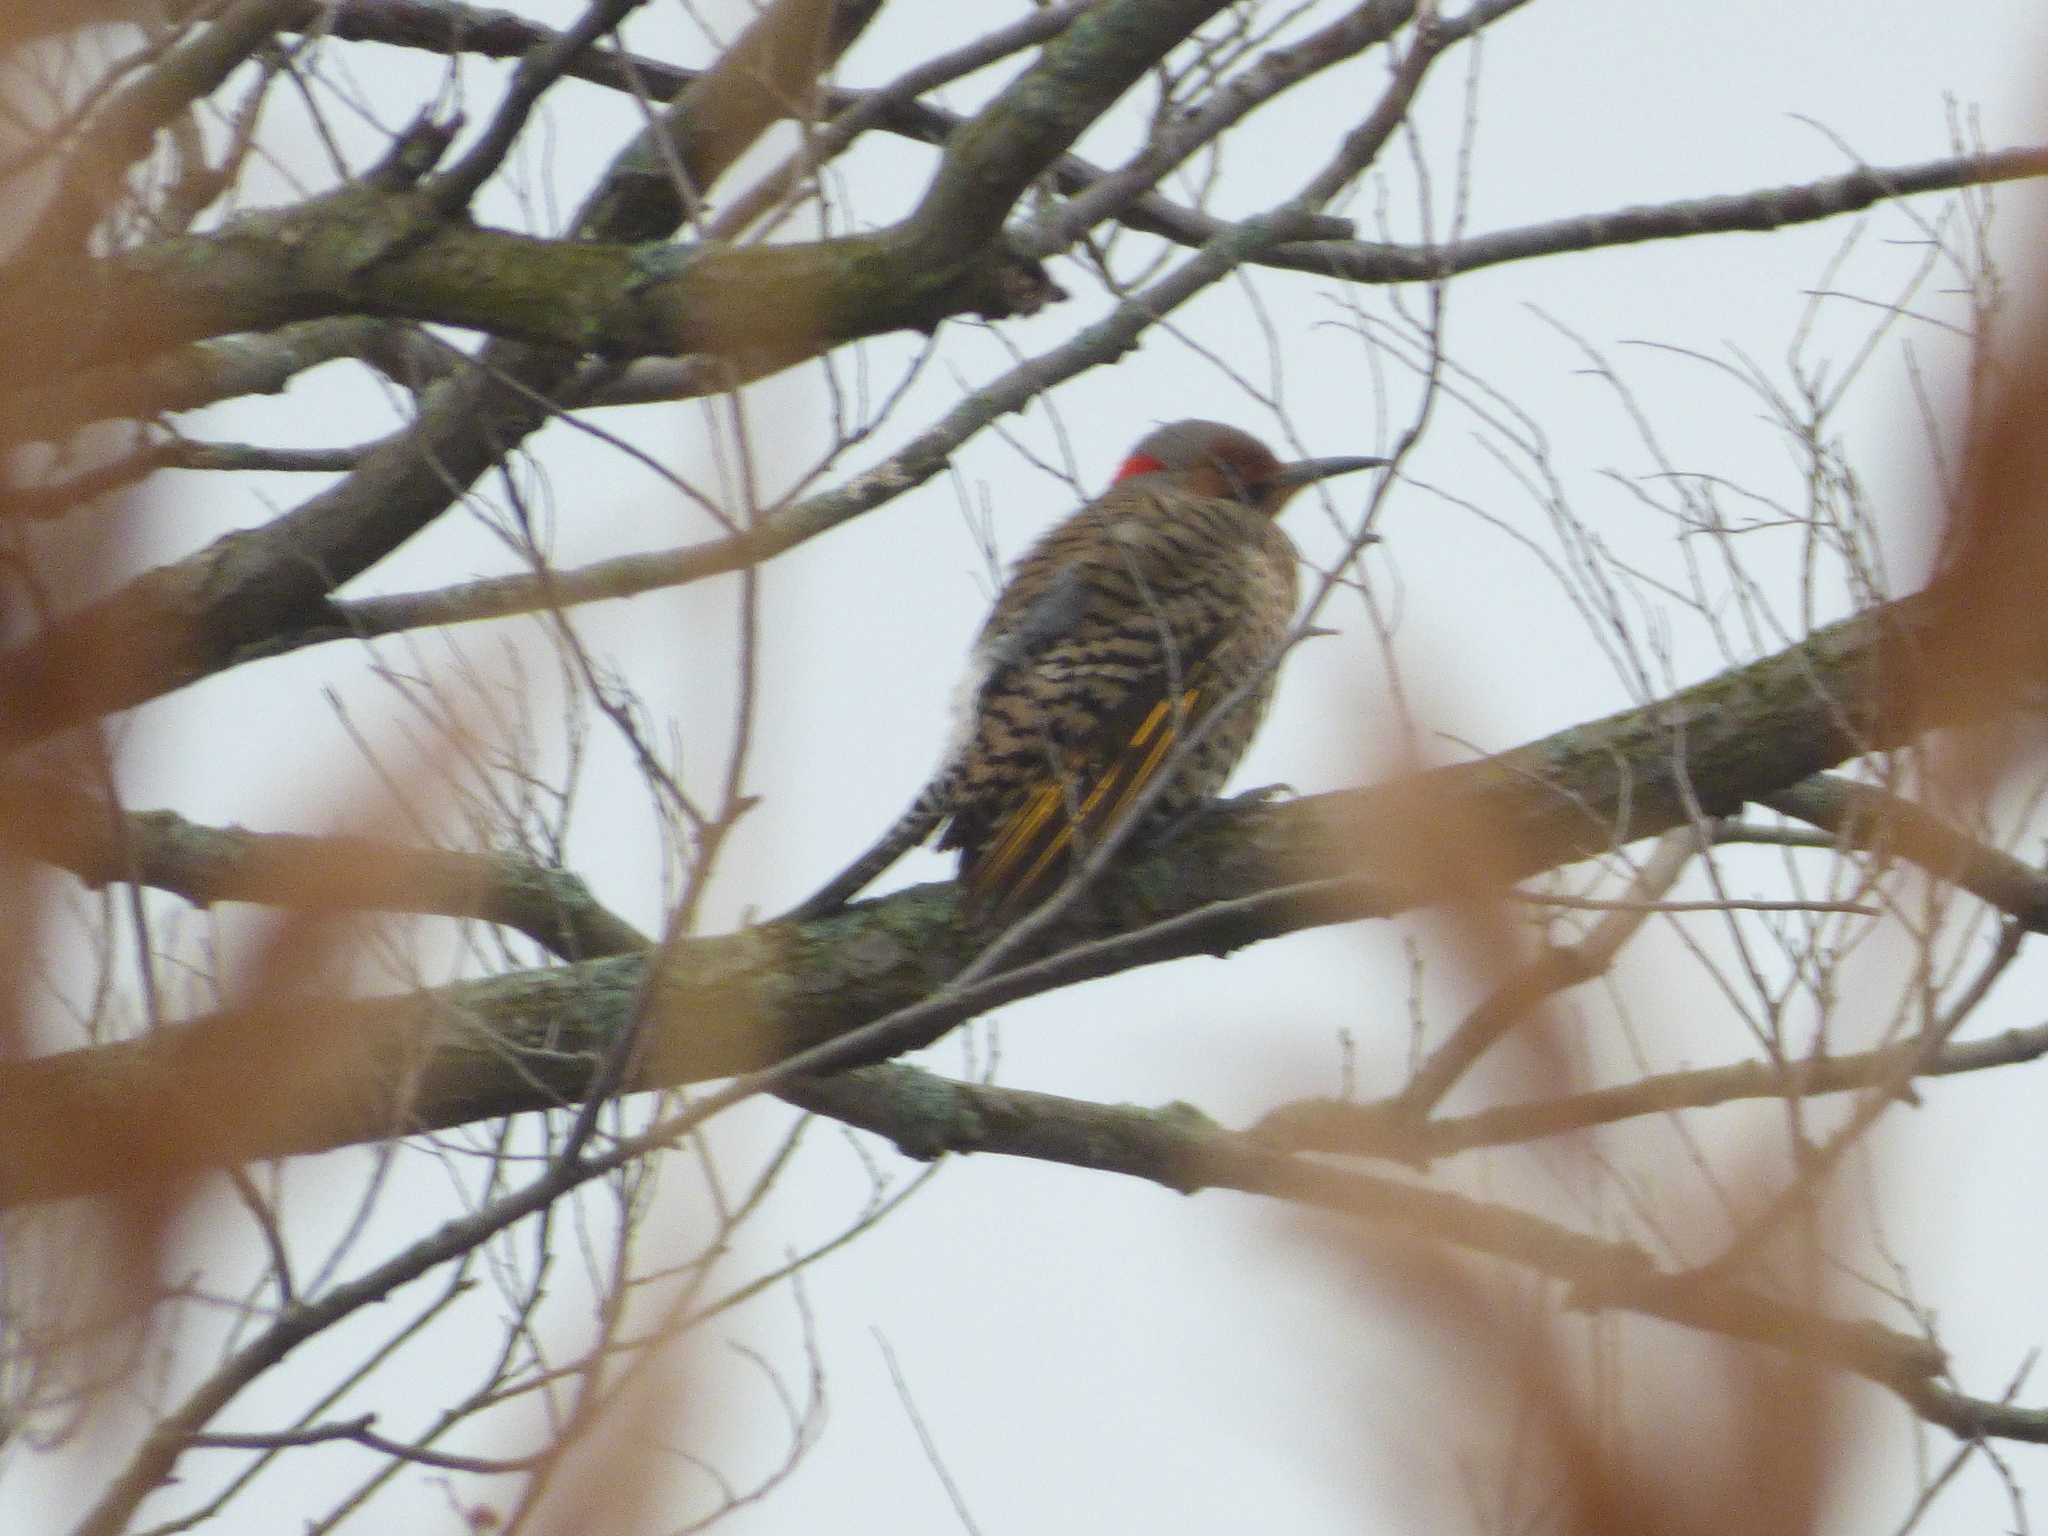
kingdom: Animalia
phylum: Chordata
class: Aves
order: Piciformes
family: Picidae
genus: Colaptes
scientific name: Colaptes auratus
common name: Northern flicker
